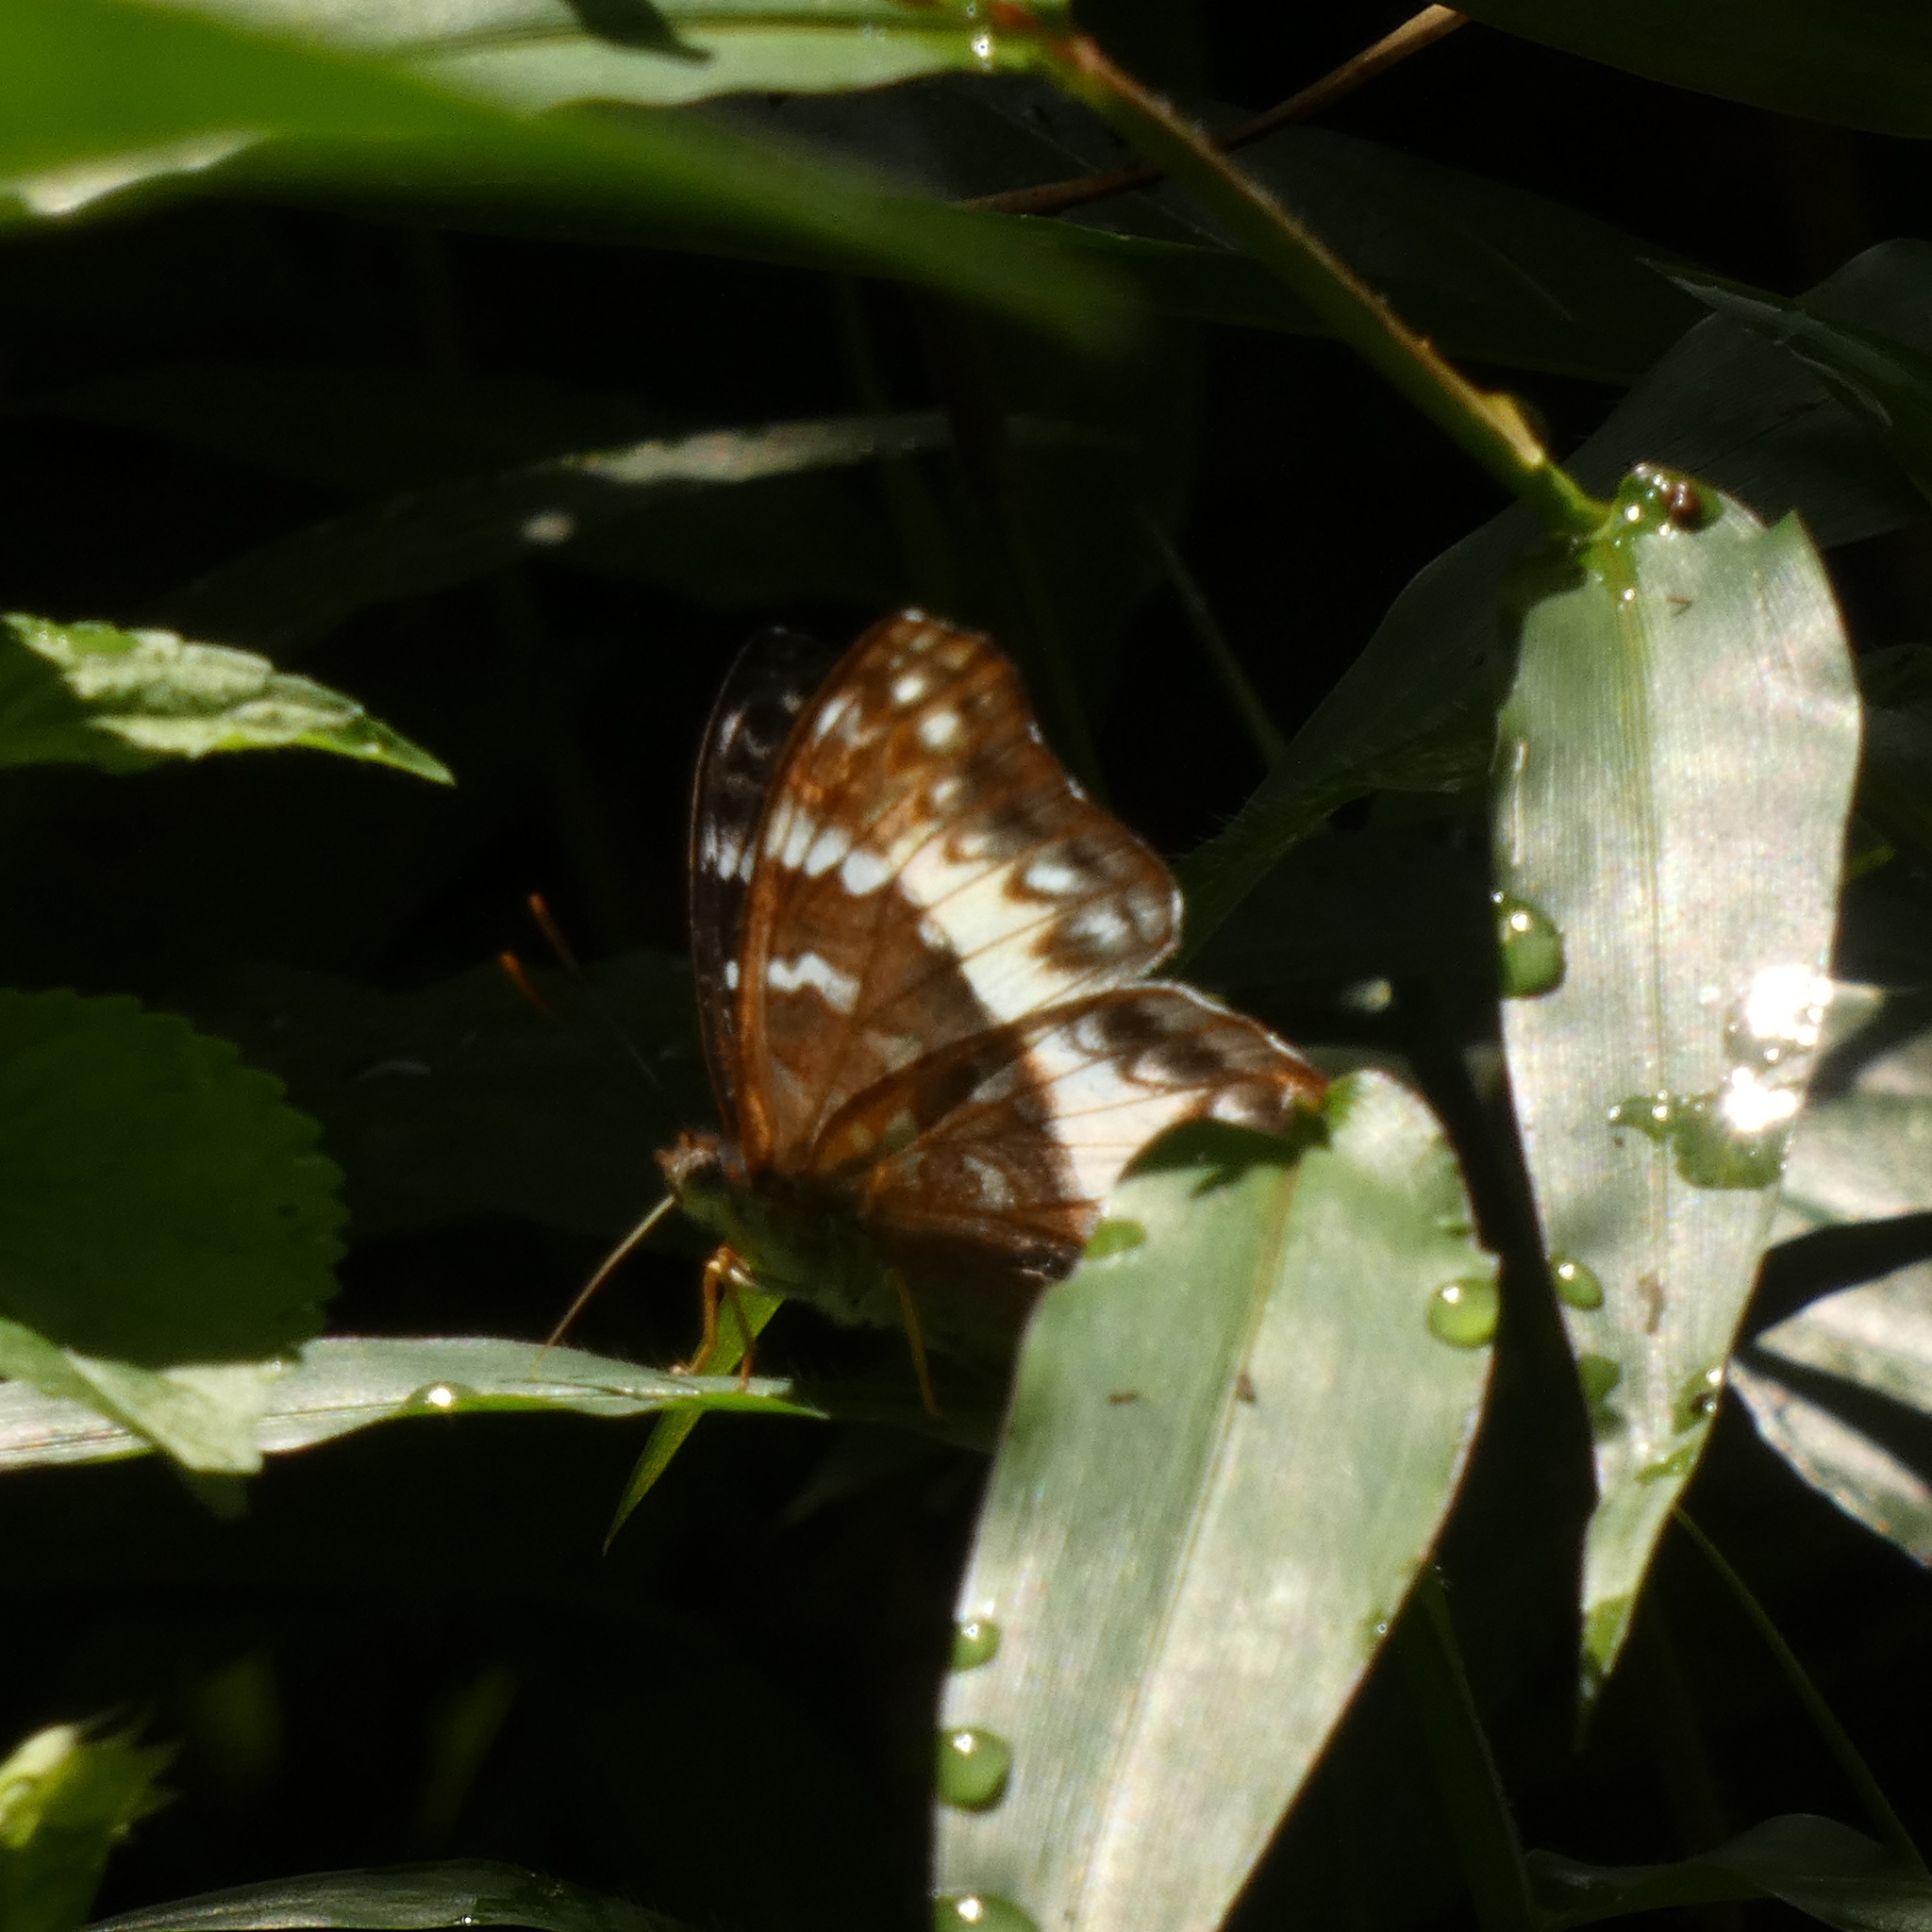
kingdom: Animalia
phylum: Arthropoda
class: Insecta
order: Lepidoptera
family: Nymphalidae
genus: Cymothoe
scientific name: Cymothoe alcimeda
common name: Battling glider
